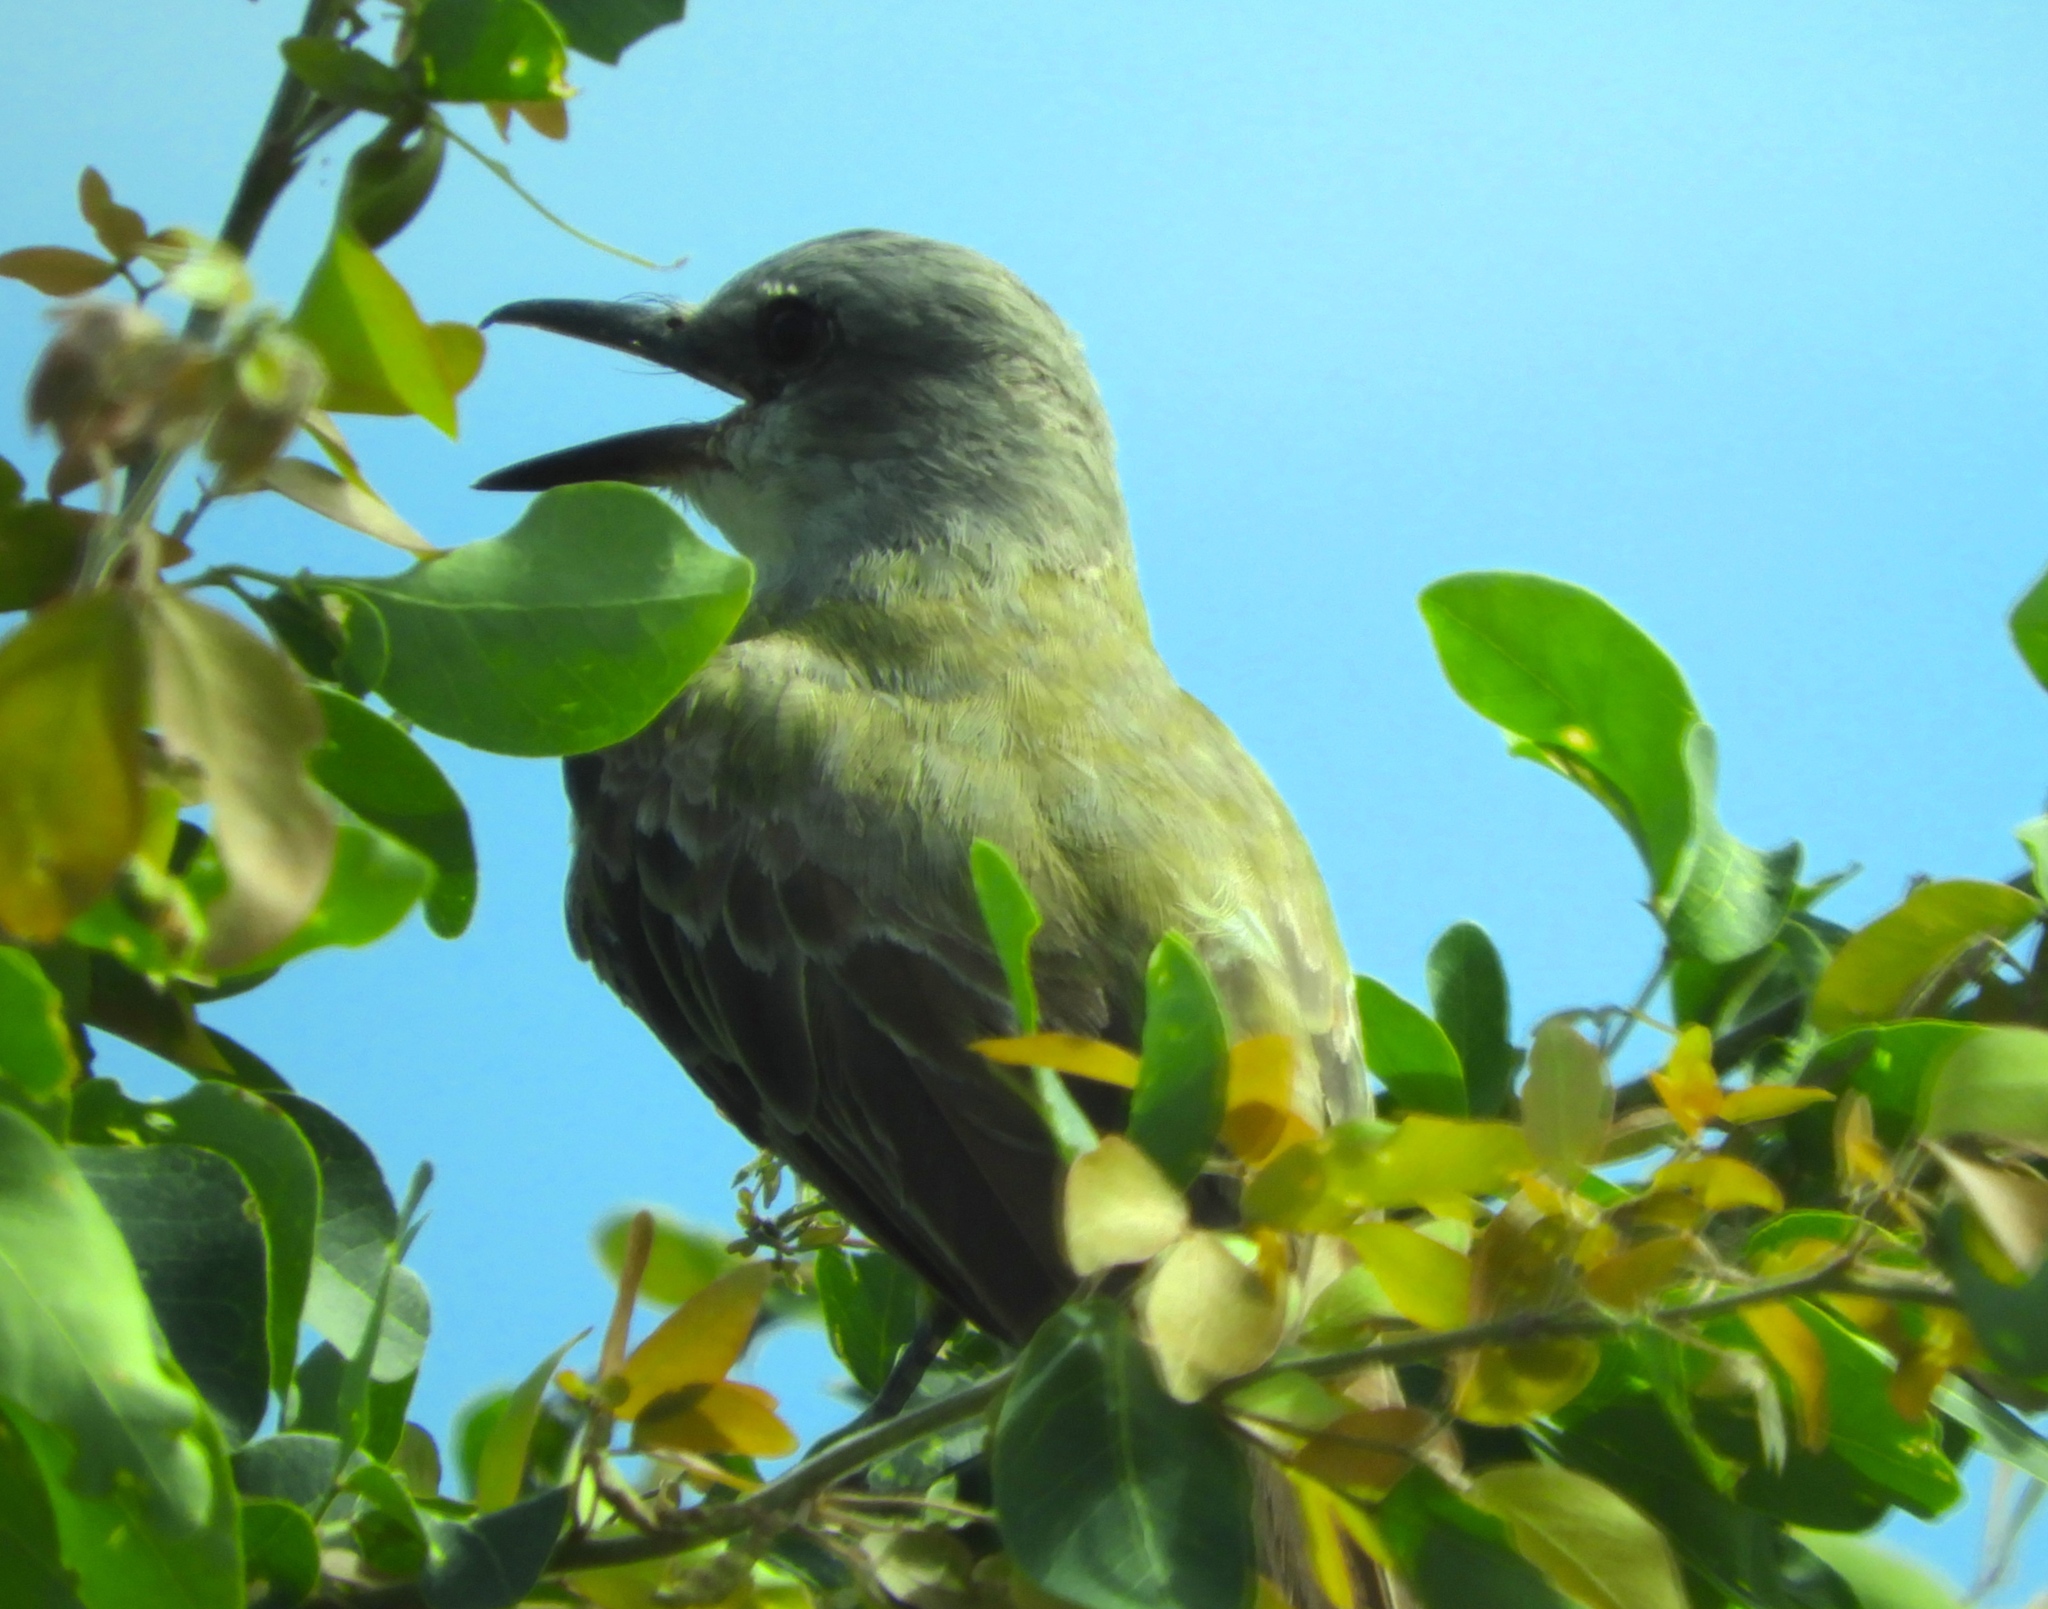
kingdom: Animalia
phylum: Chordata
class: Aves
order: Passeriformes
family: Tyrannidae
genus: Tyrannus
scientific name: Tyrannus melancholicus
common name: Tropical kingbird
